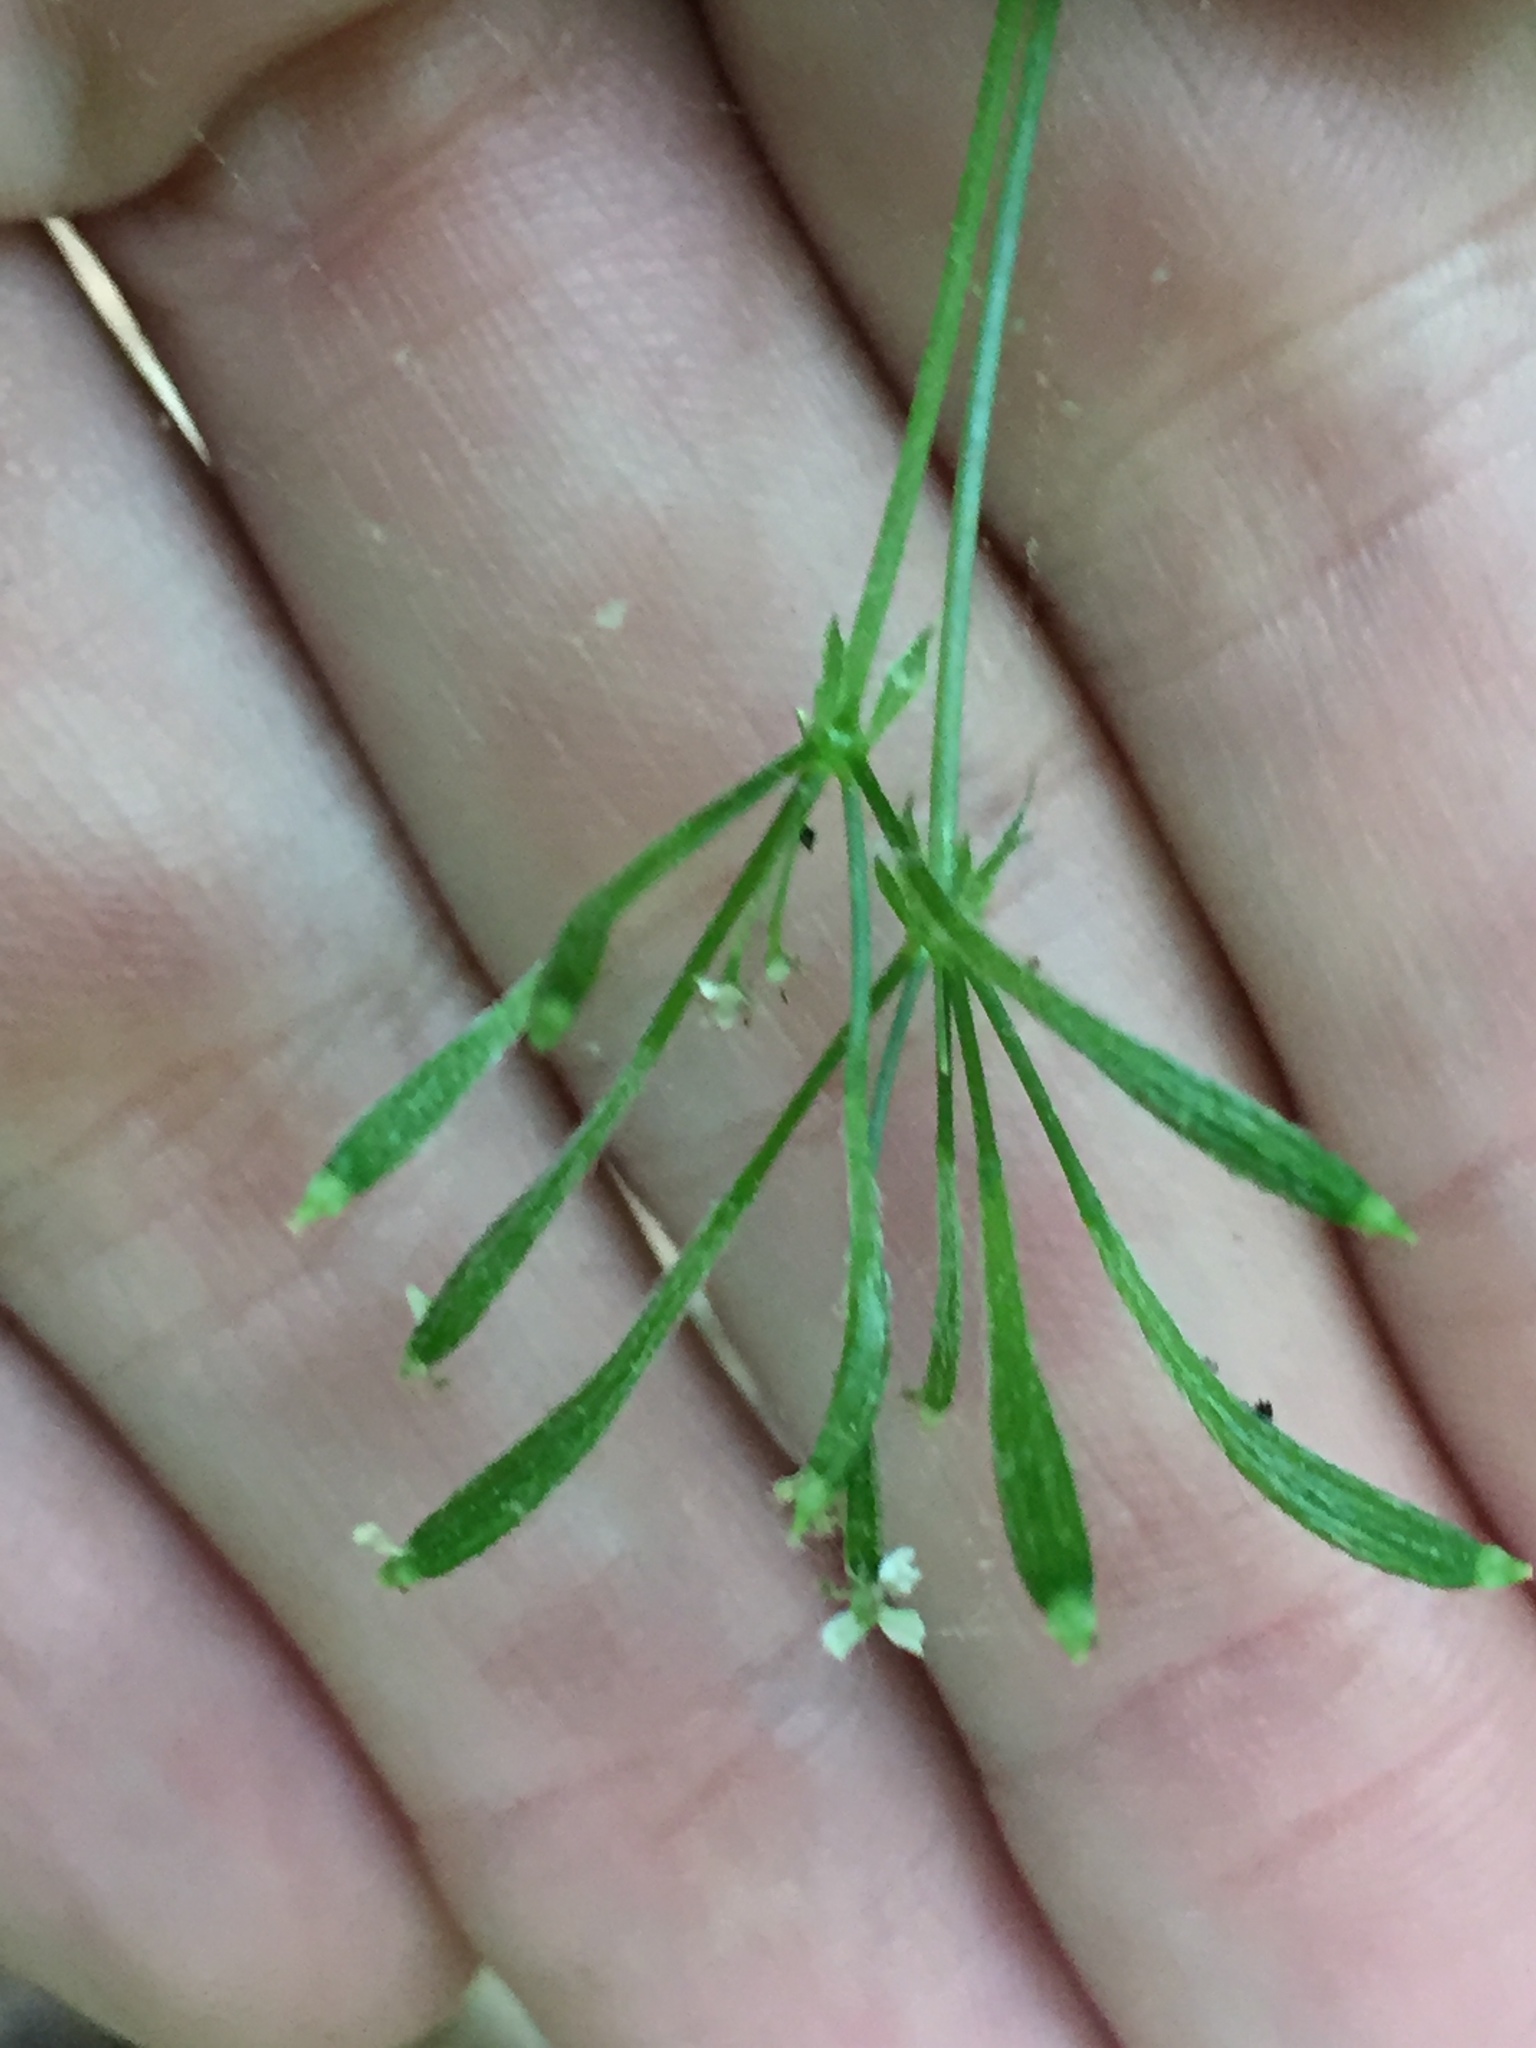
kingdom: Plantae
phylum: Tracheophyta
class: Magnoliopsida
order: Apiales
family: Apiaceae
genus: Osmorhiza
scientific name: Osmorhiza claytonii
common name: Hairy sweet cicely
